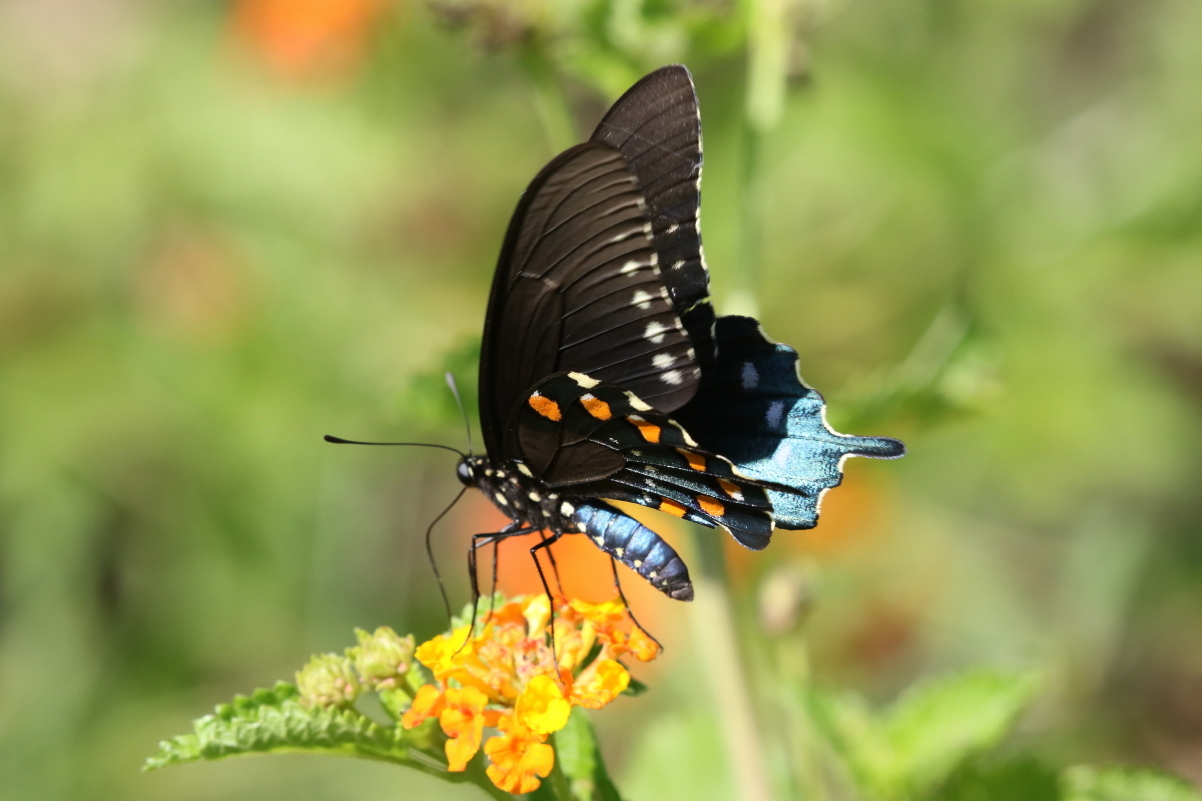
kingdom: Animalia
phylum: Arthropoda
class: Insecta
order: Lepidoptera
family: Papilionidae
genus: Battus
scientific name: Battus philenor
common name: Pipevine swallowtail
